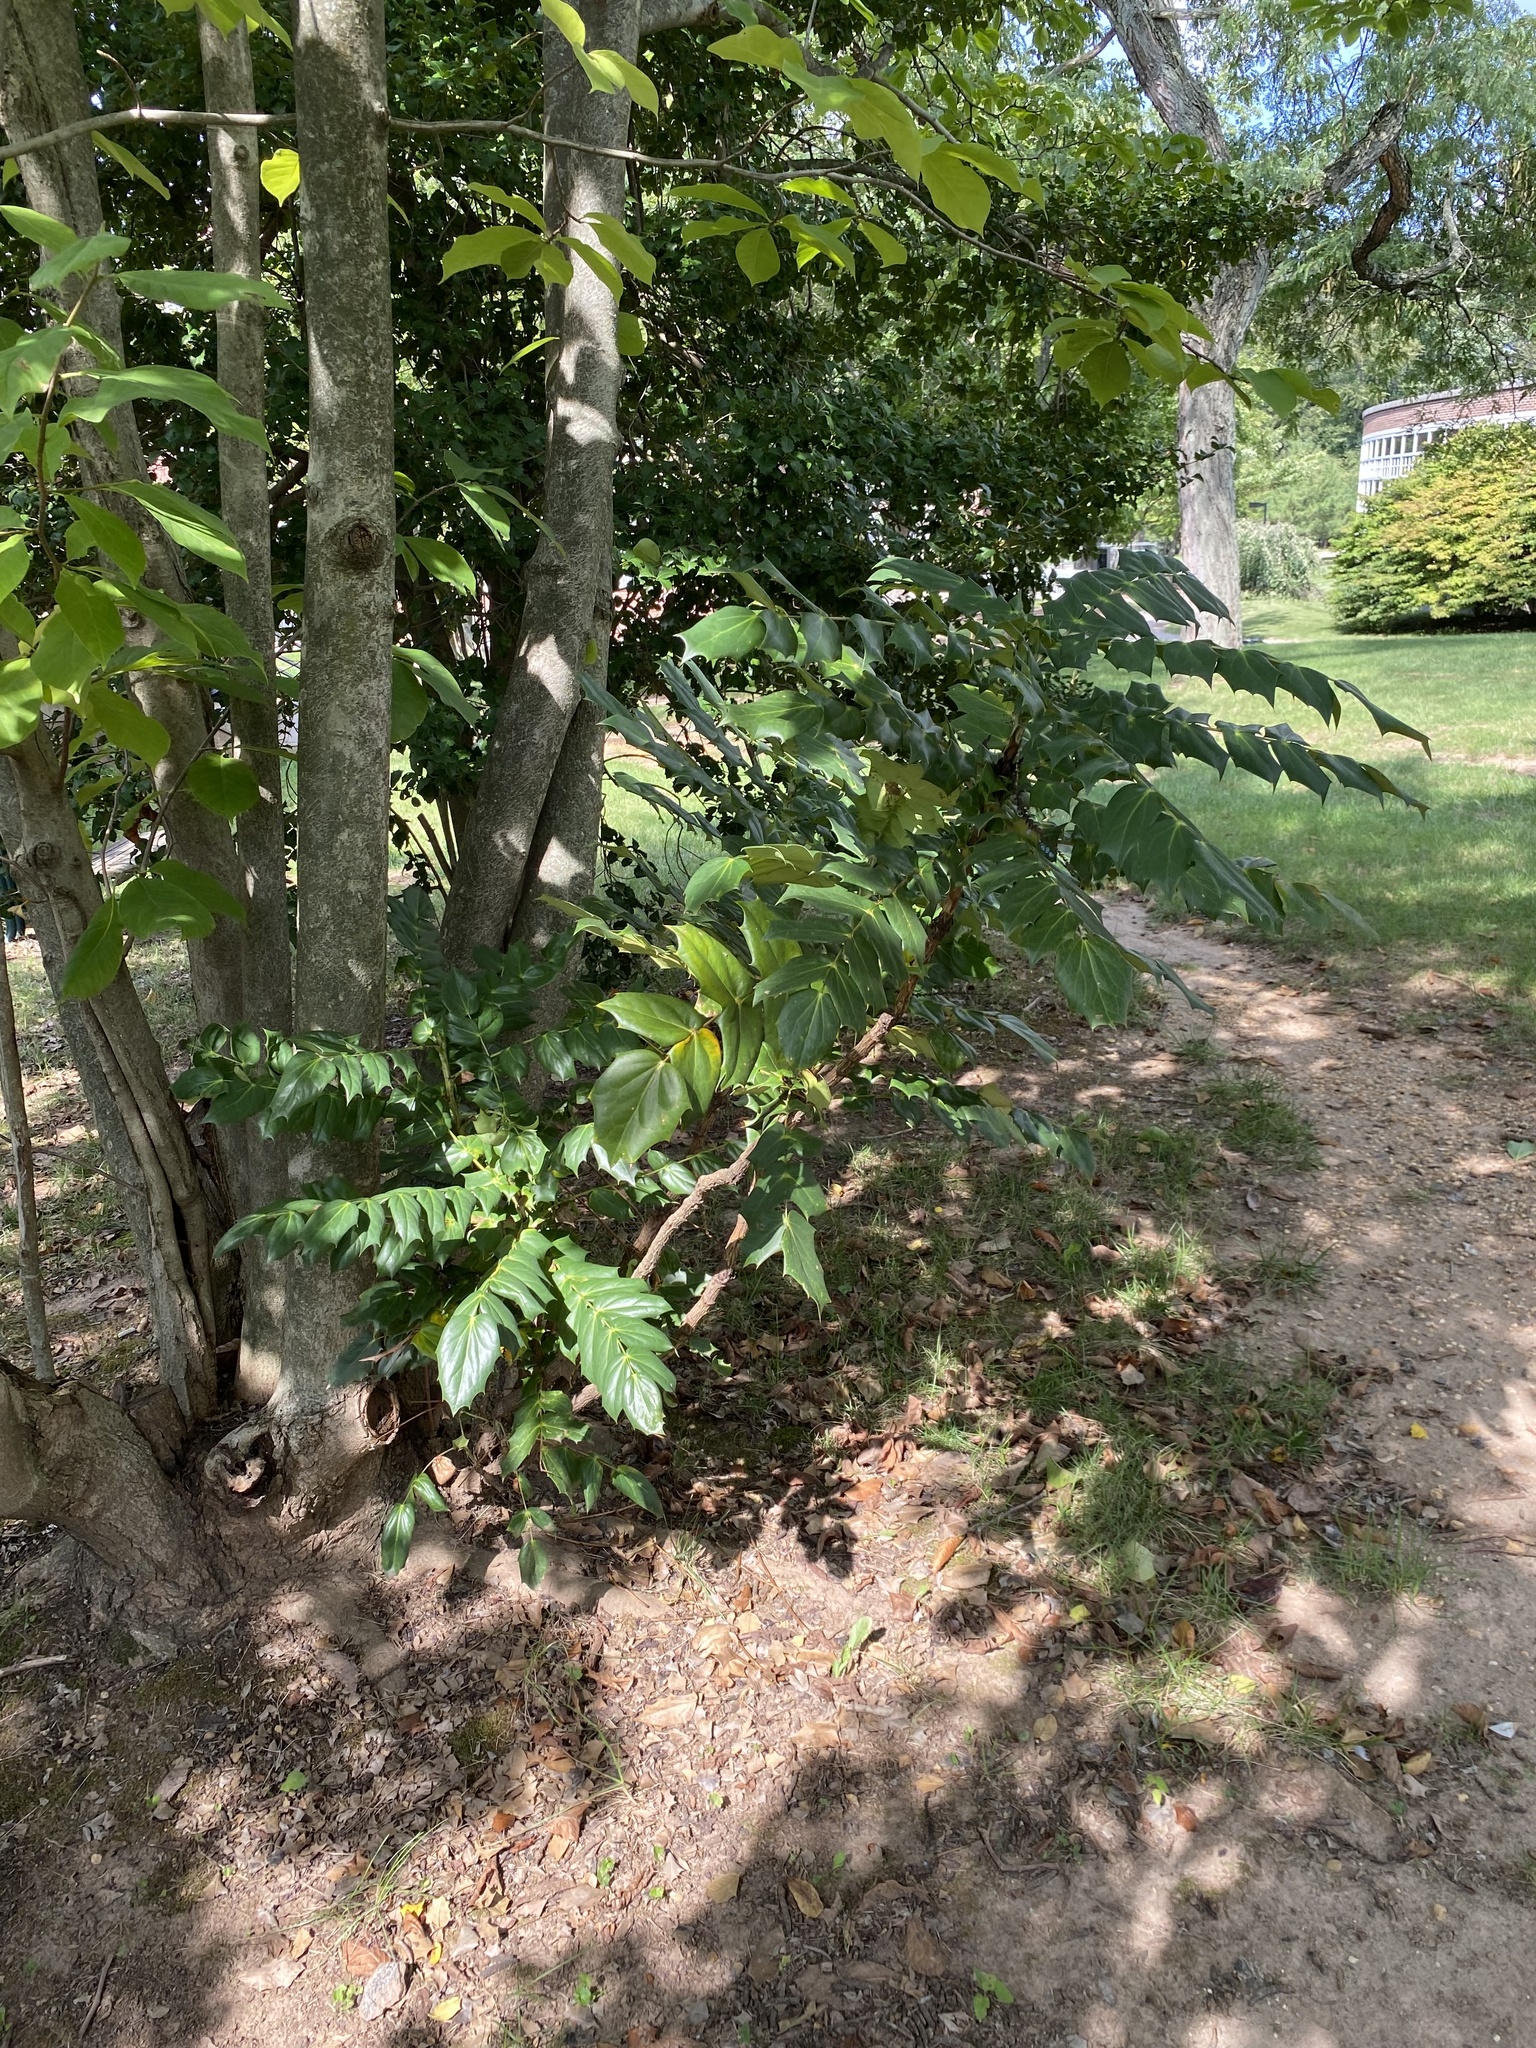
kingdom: Plantae
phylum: Tracheophyta
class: Magnoliopsida
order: Ranunculales
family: Berberidaceae
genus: Mahonia
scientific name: Mahonia bealei
